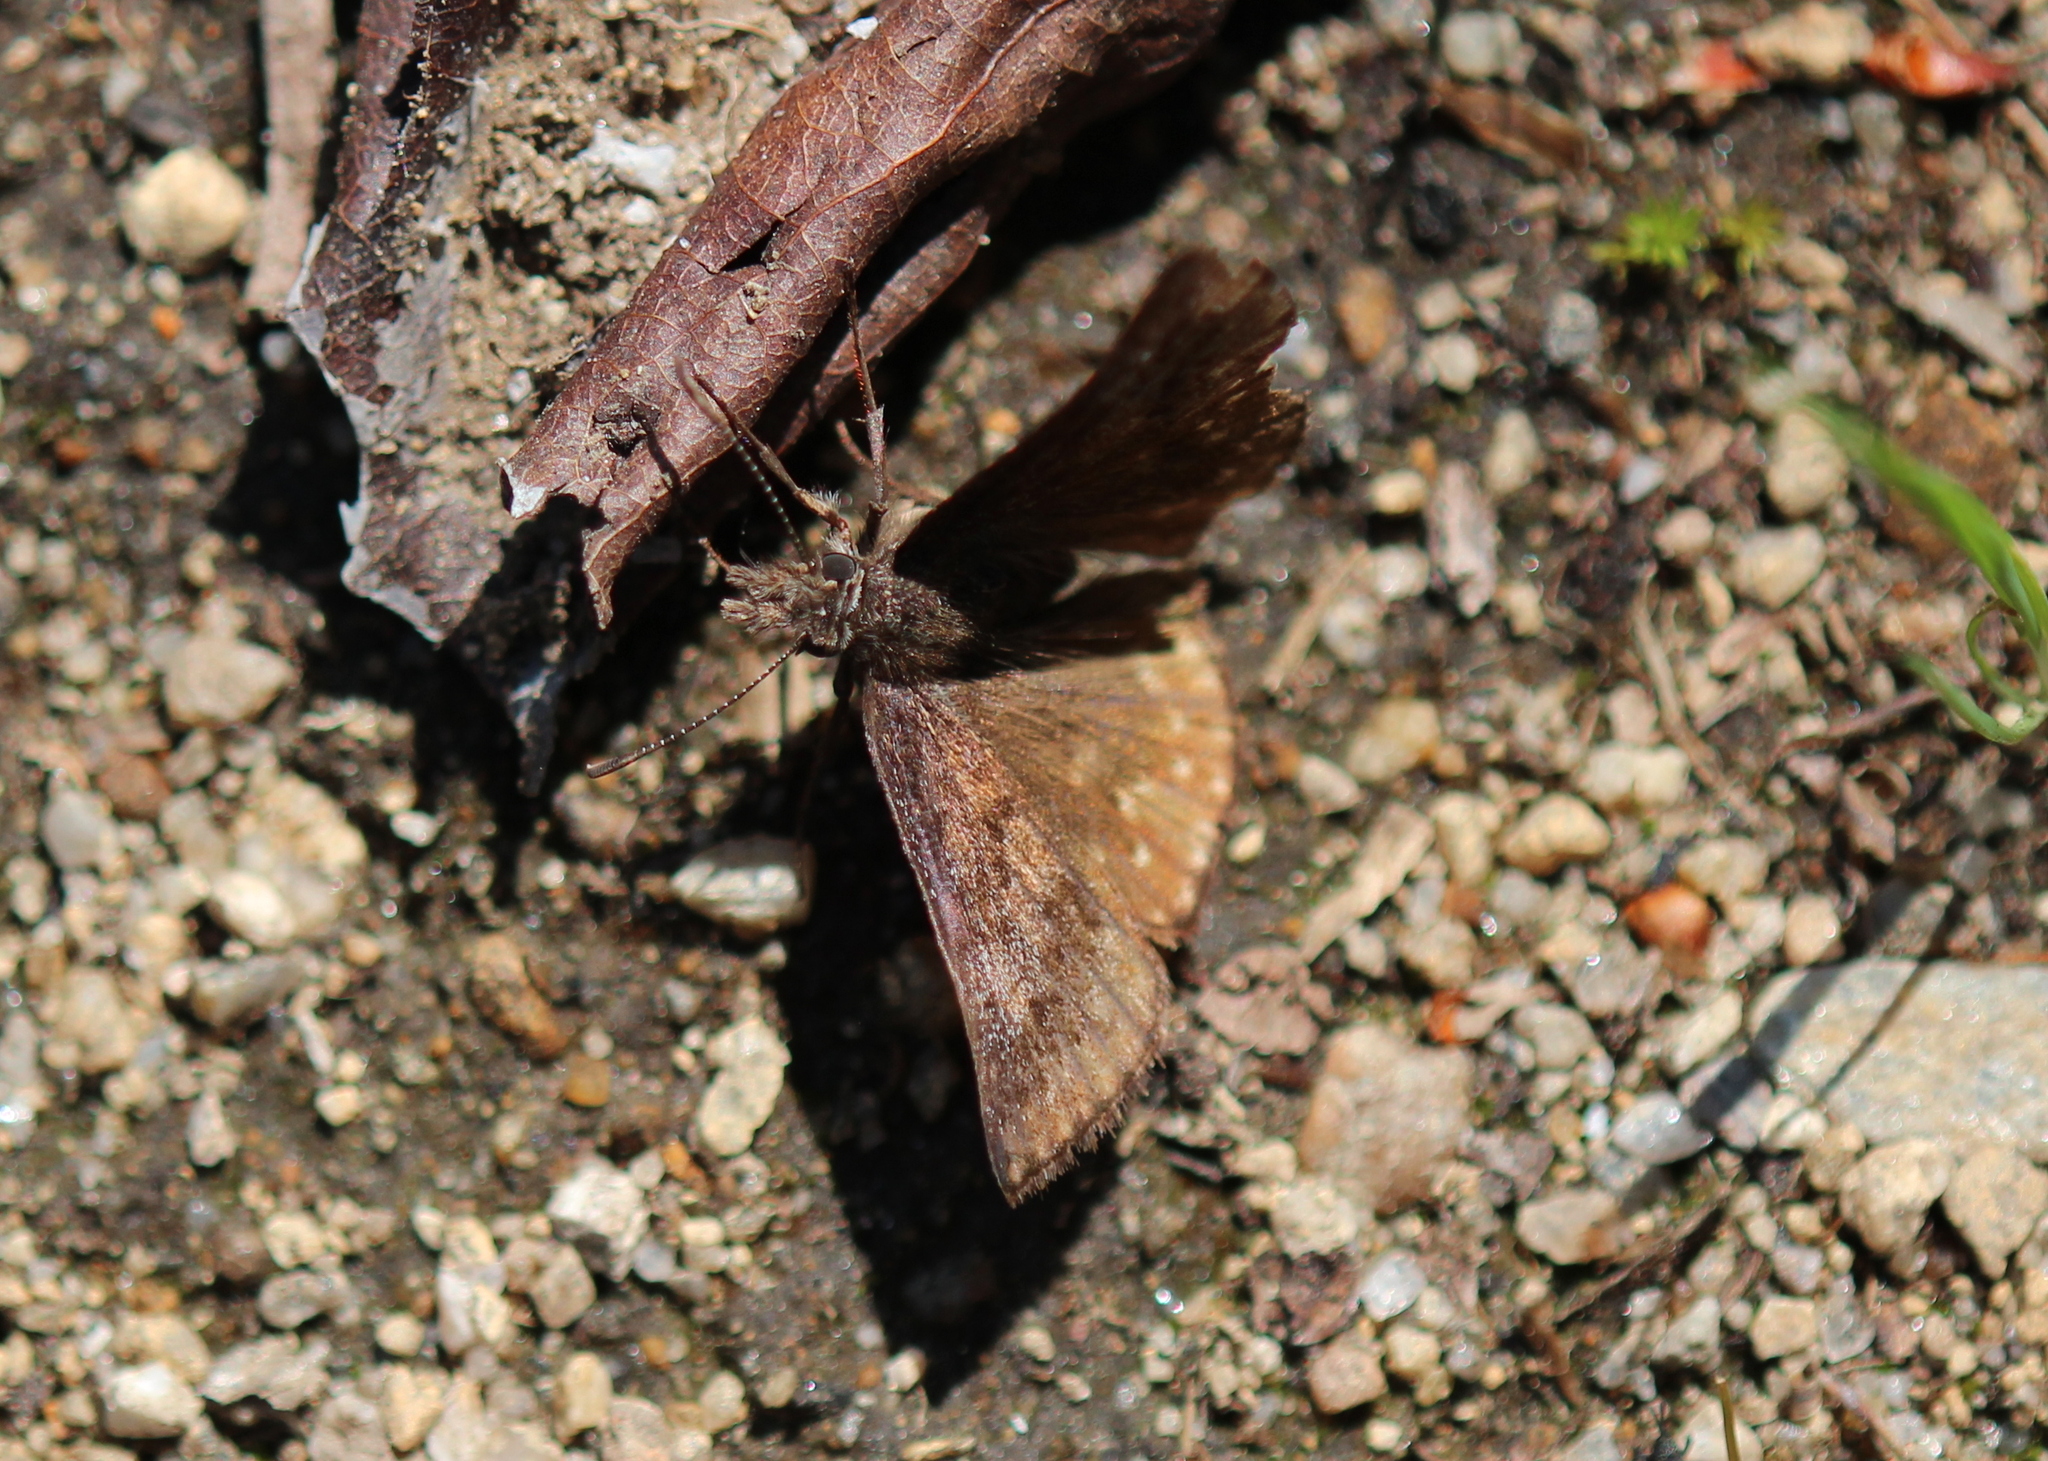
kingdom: Animalia
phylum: Arthropoda
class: Insecta
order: Lepidoptera
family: Hesperiidae
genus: Erynnis
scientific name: Erynnis icelus
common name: Dreamy duskywing
